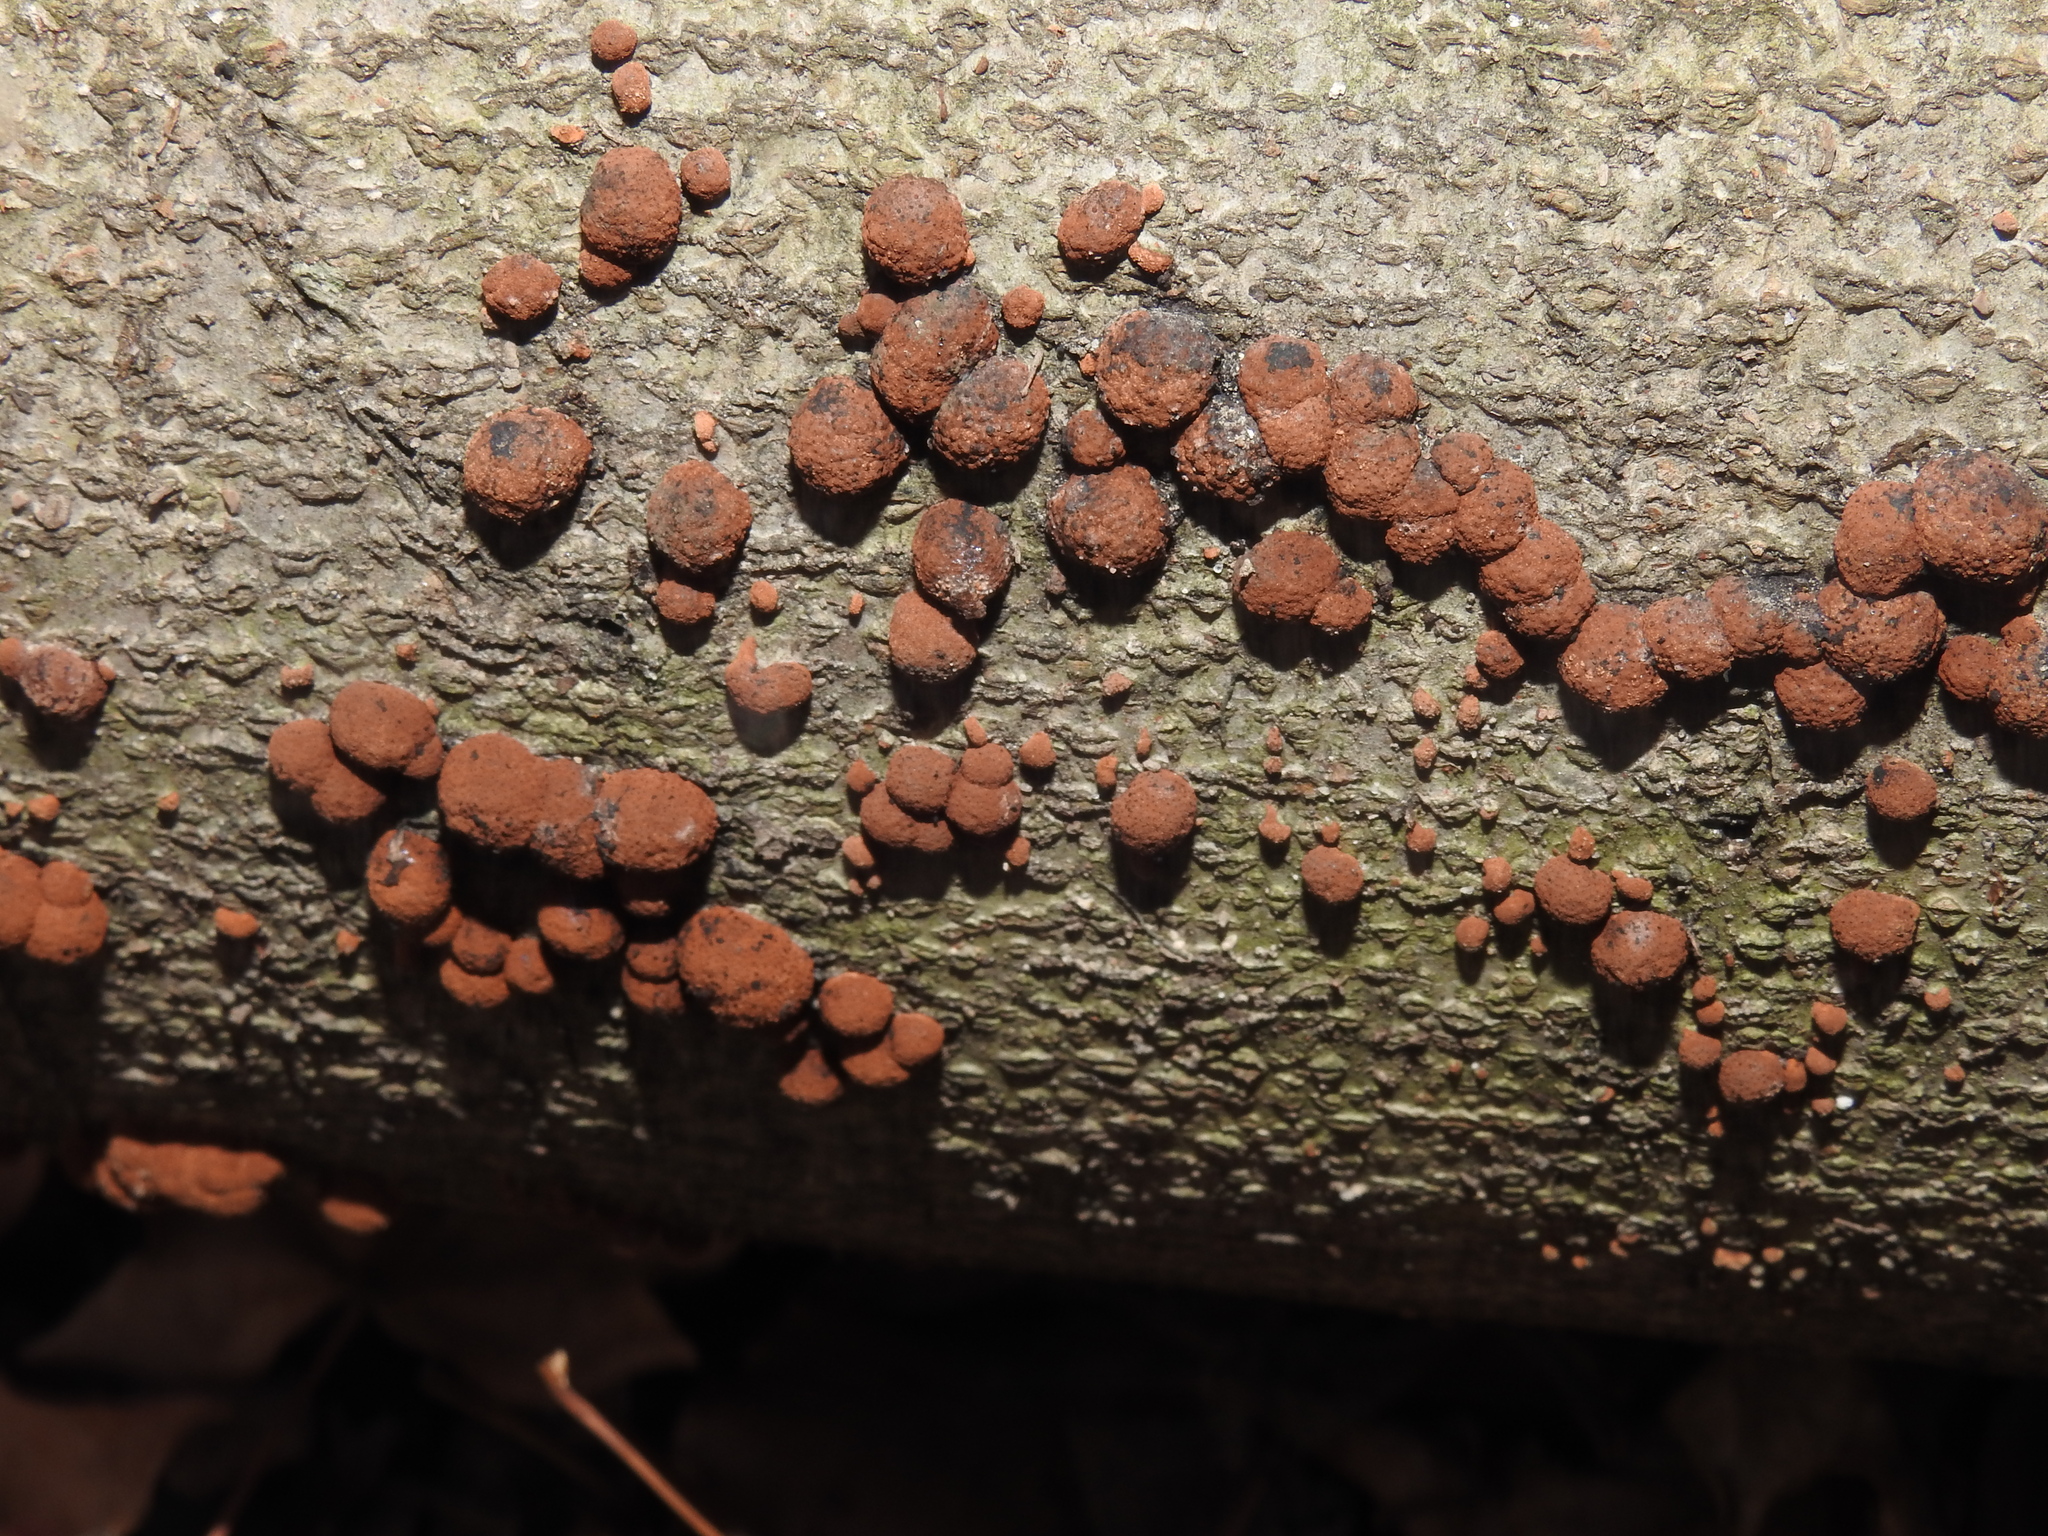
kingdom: Fungi
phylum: Ascomycota
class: Sordariomycetes
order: Xylariales
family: Hypoxylaceae
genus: Hypoxylon
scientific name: Hypoxylon fragiforme
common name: Beech woodwart
